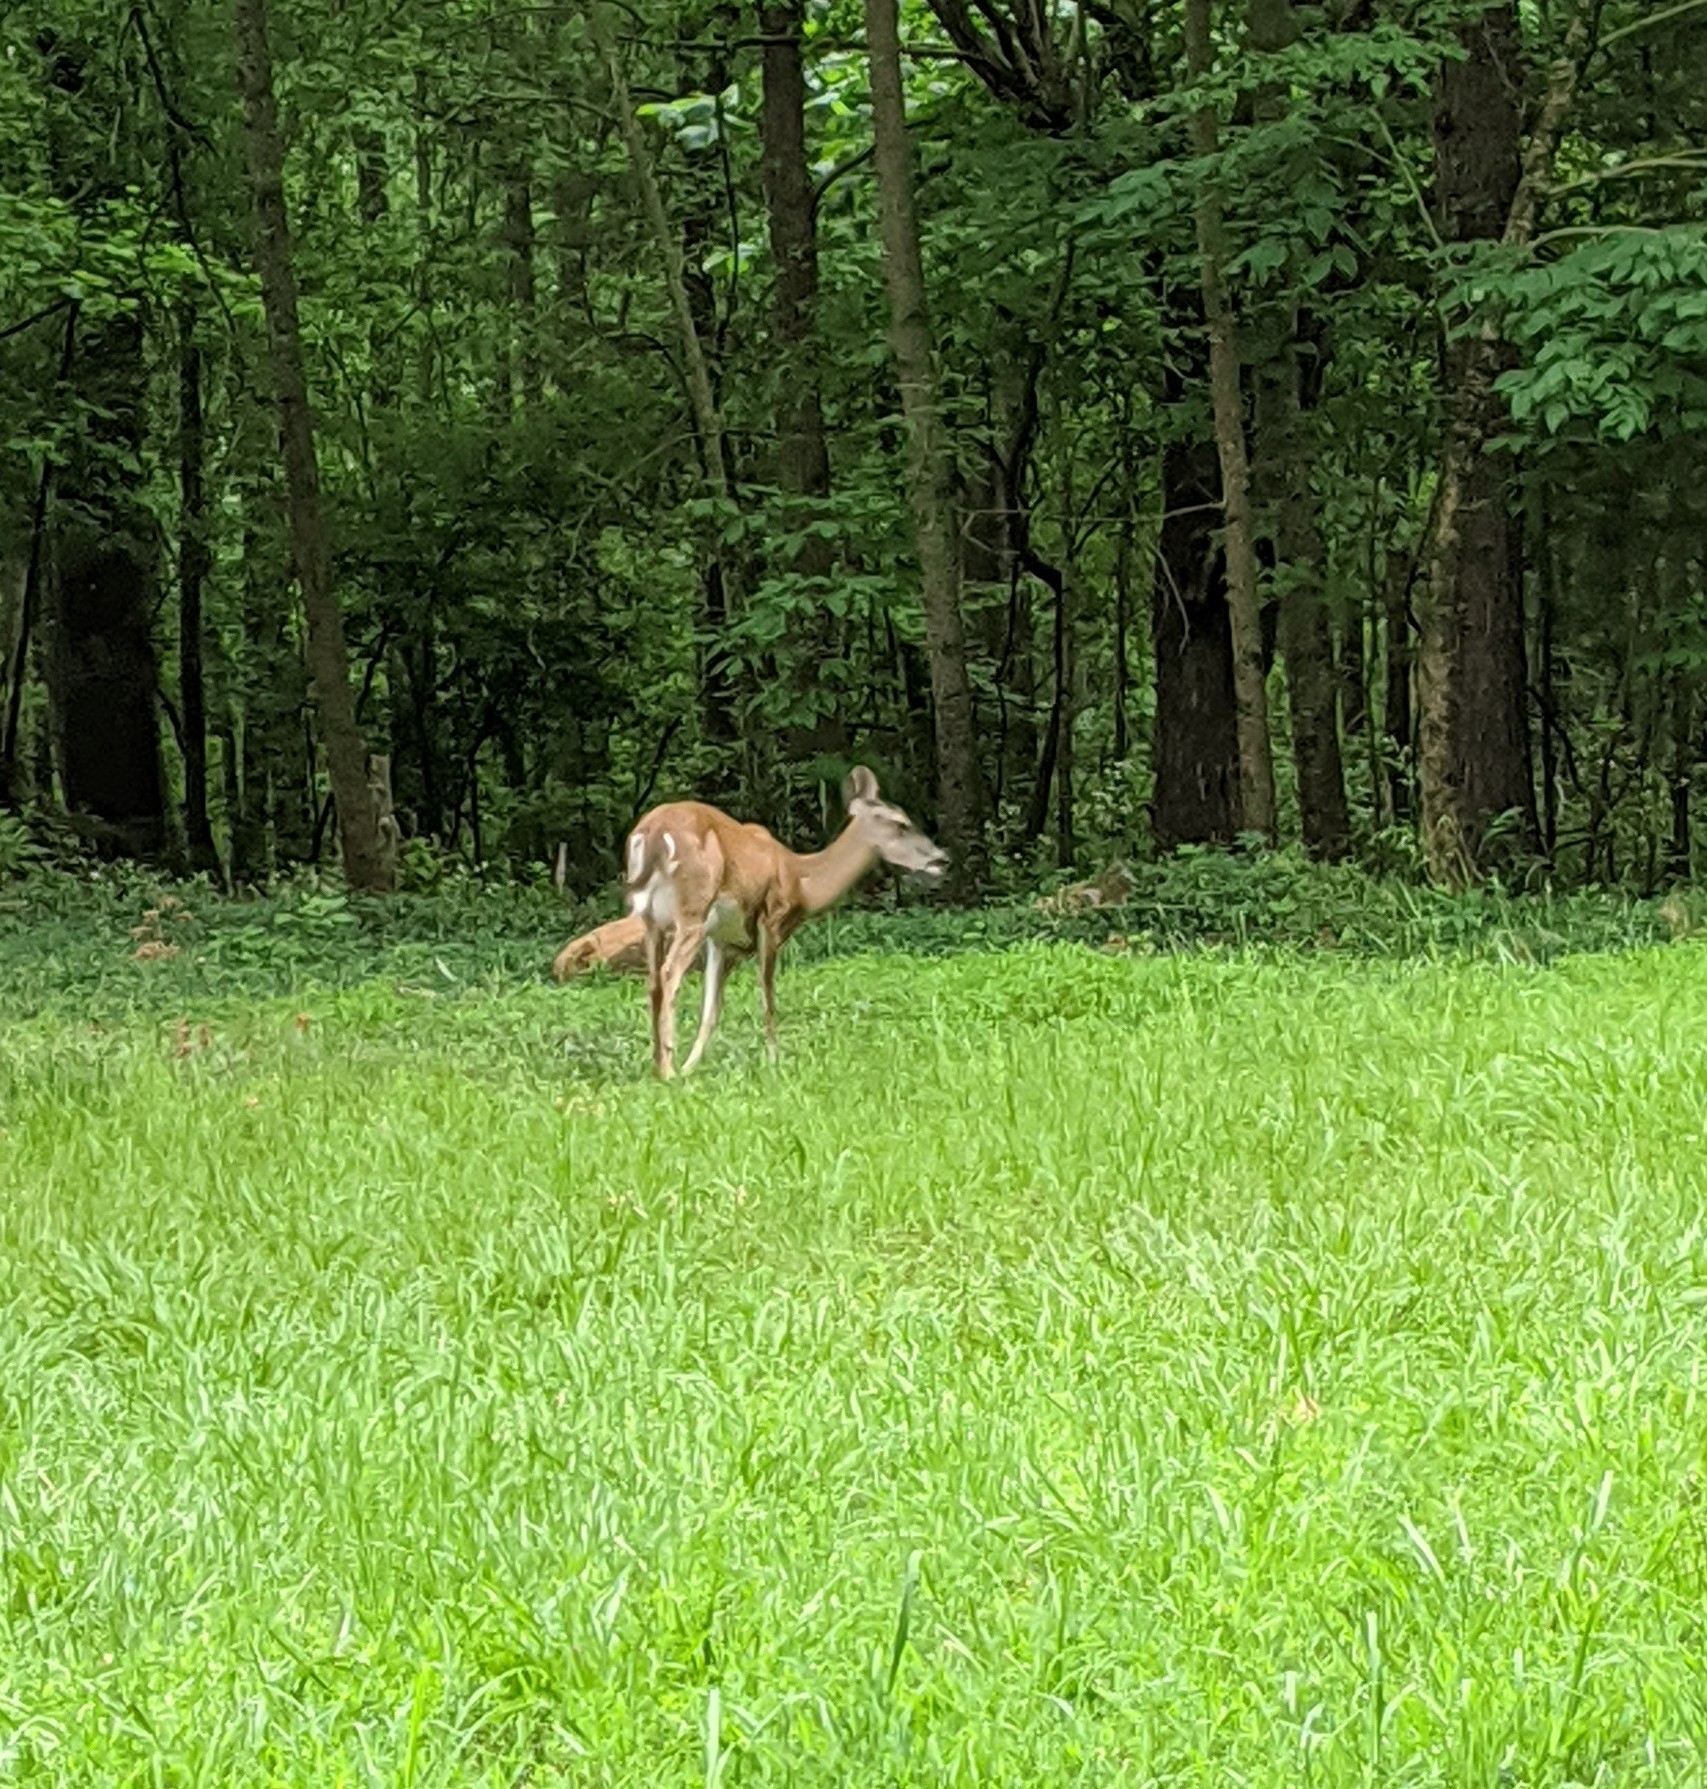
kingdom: Animalia
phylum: Chordata
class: Mammalia
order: Artiodactyla
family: Cervidae
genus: Odocoileus
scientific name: Odocoileus virginianus
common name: White-tailed deer
